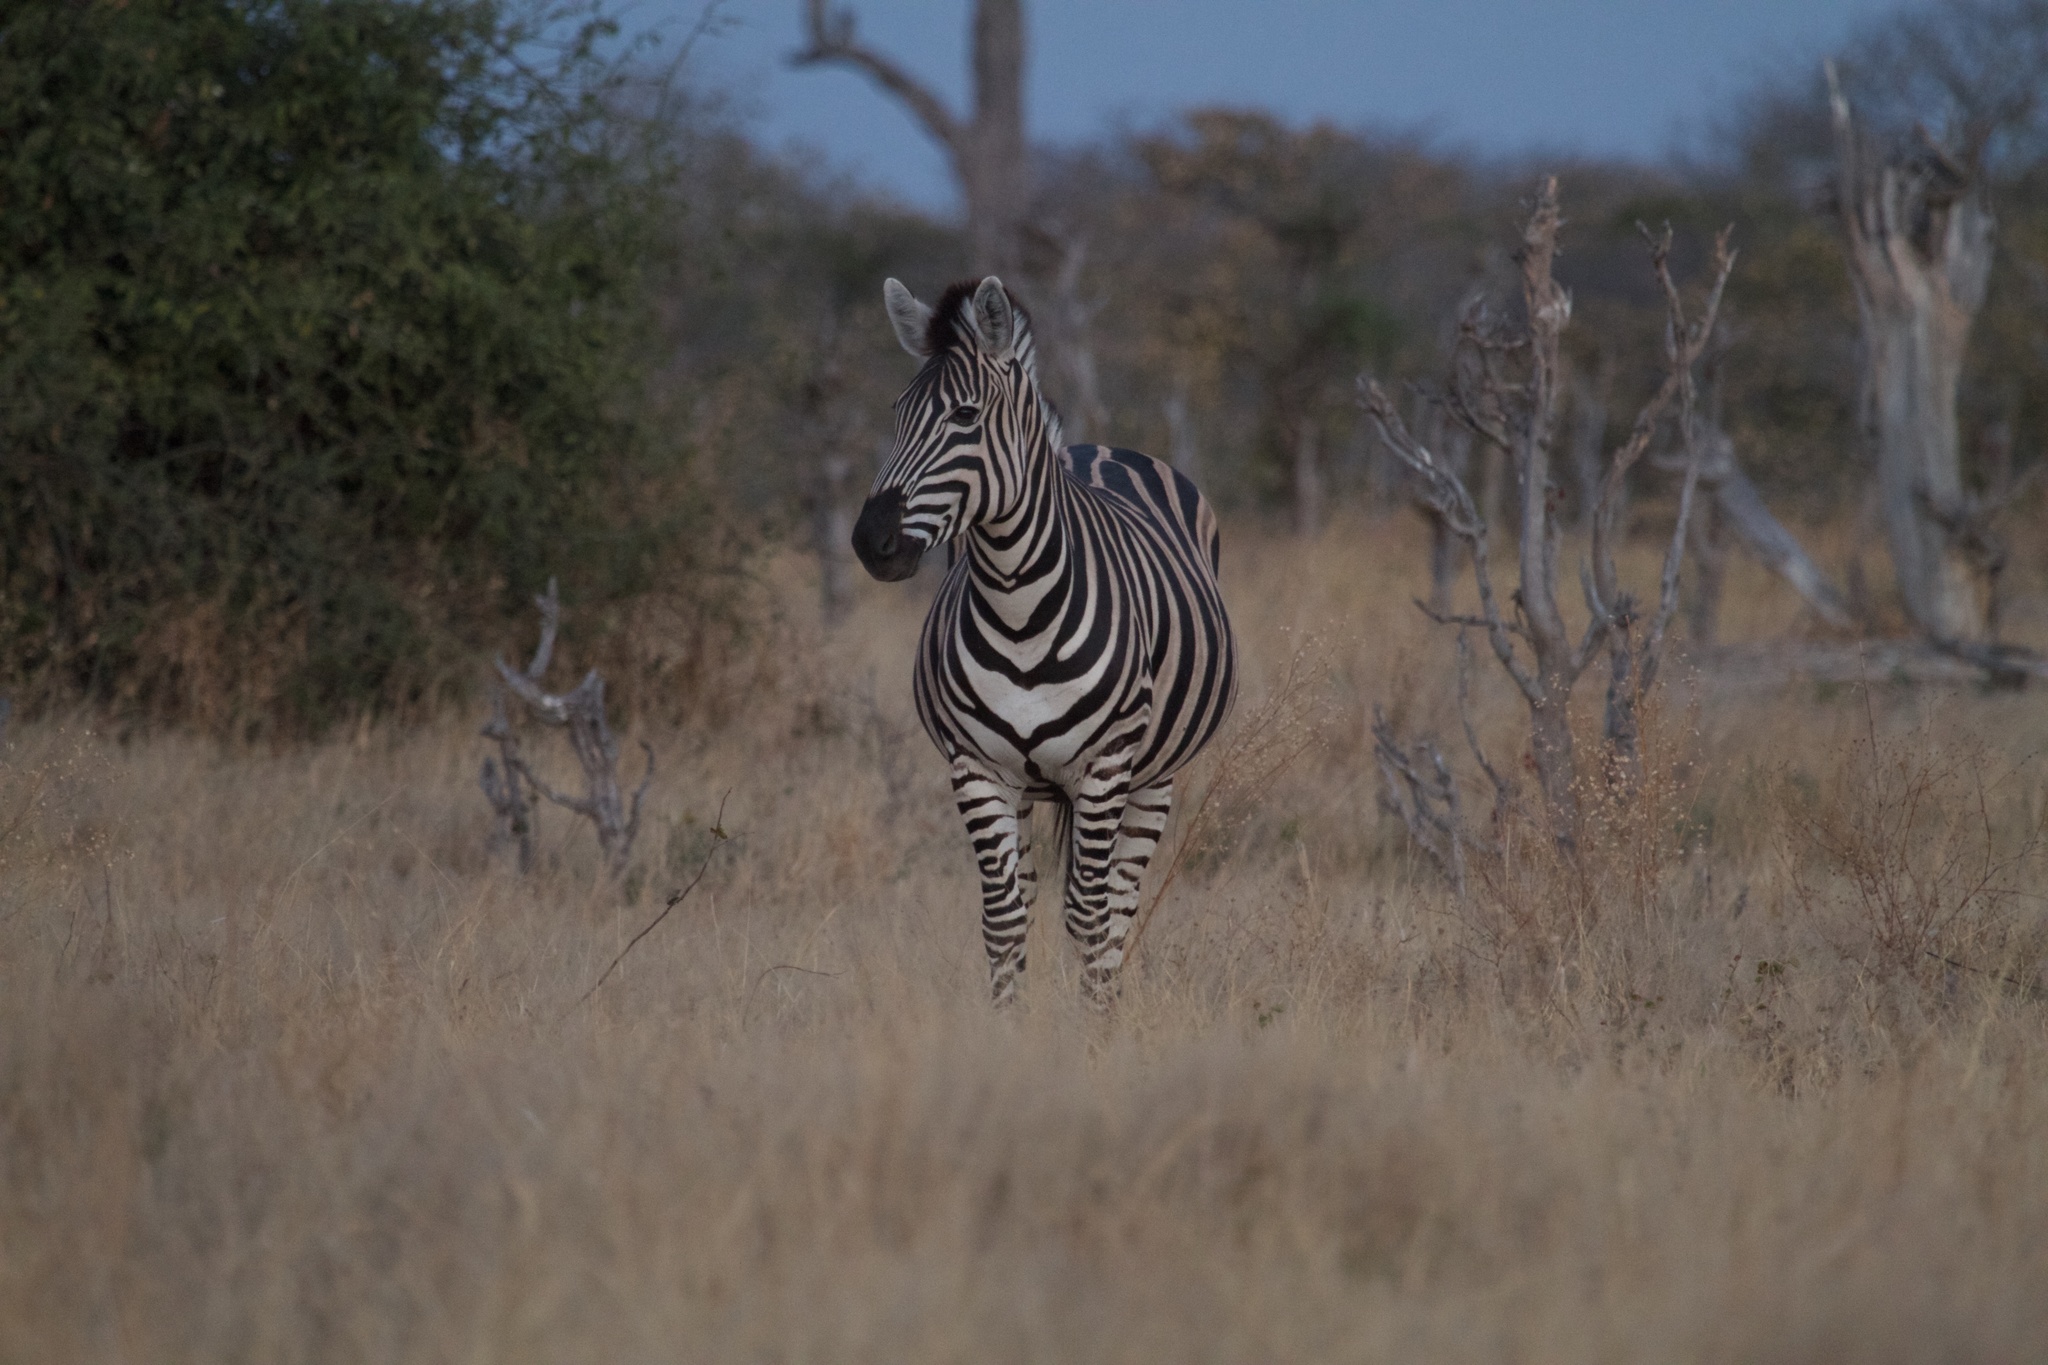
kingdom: Animalia
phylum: Chordata
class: Mammalia
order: Perissodactyla
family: Equidae
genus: Equus
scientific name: Equus quagga
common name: Plains zebra
